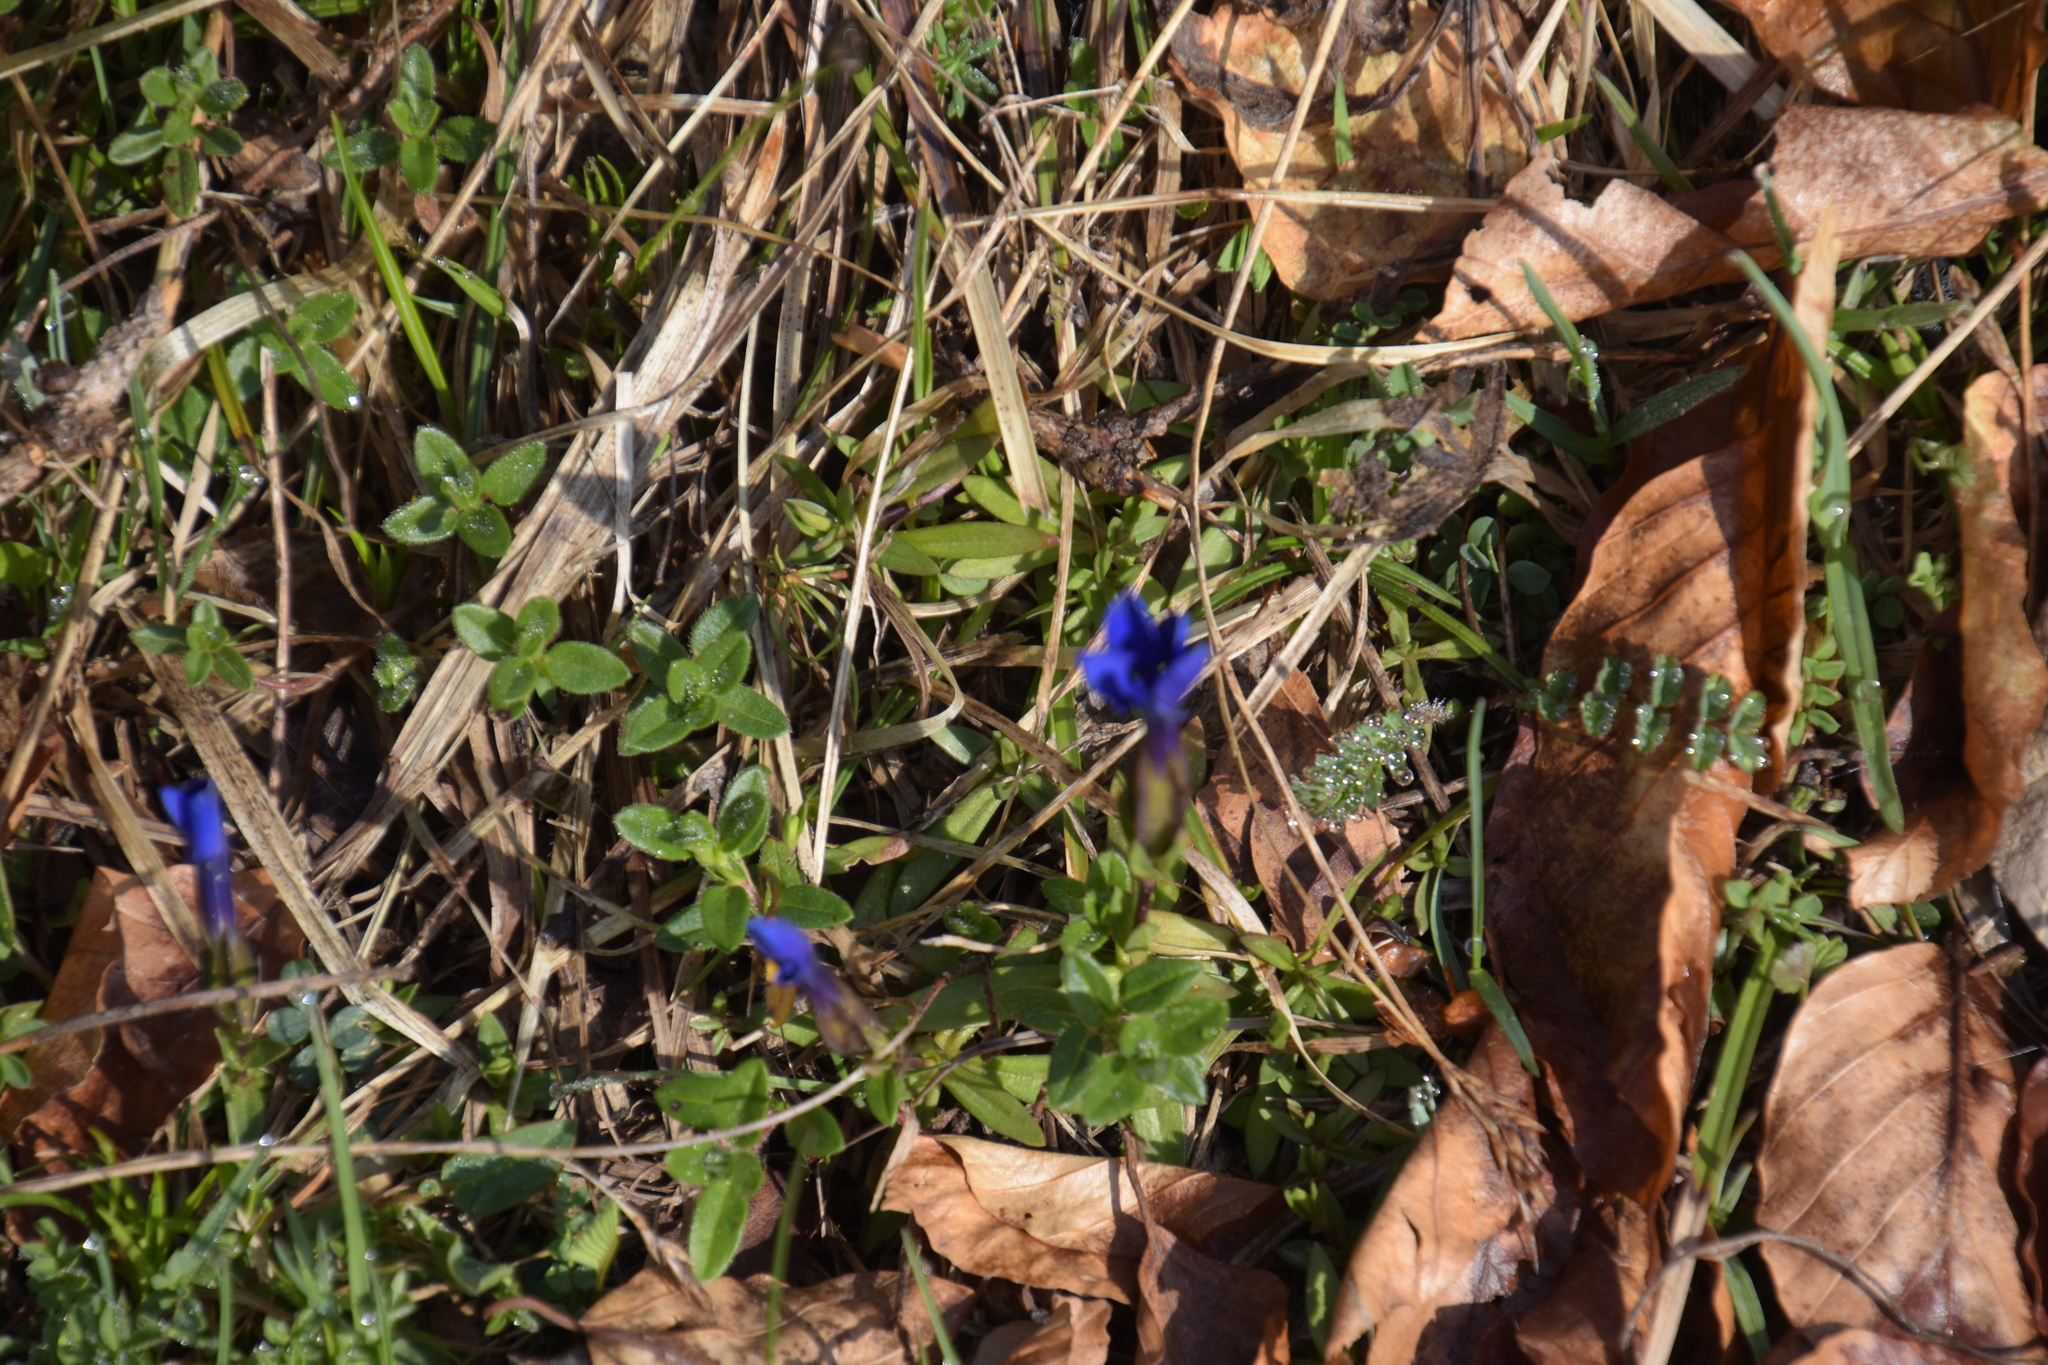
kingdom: Plantae
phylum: Tracheophyta
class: Magnoliopsida
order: Gentianales
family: Gentianaceae
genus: Gentiana
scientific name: Gentiana verna
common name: Spring gentian
